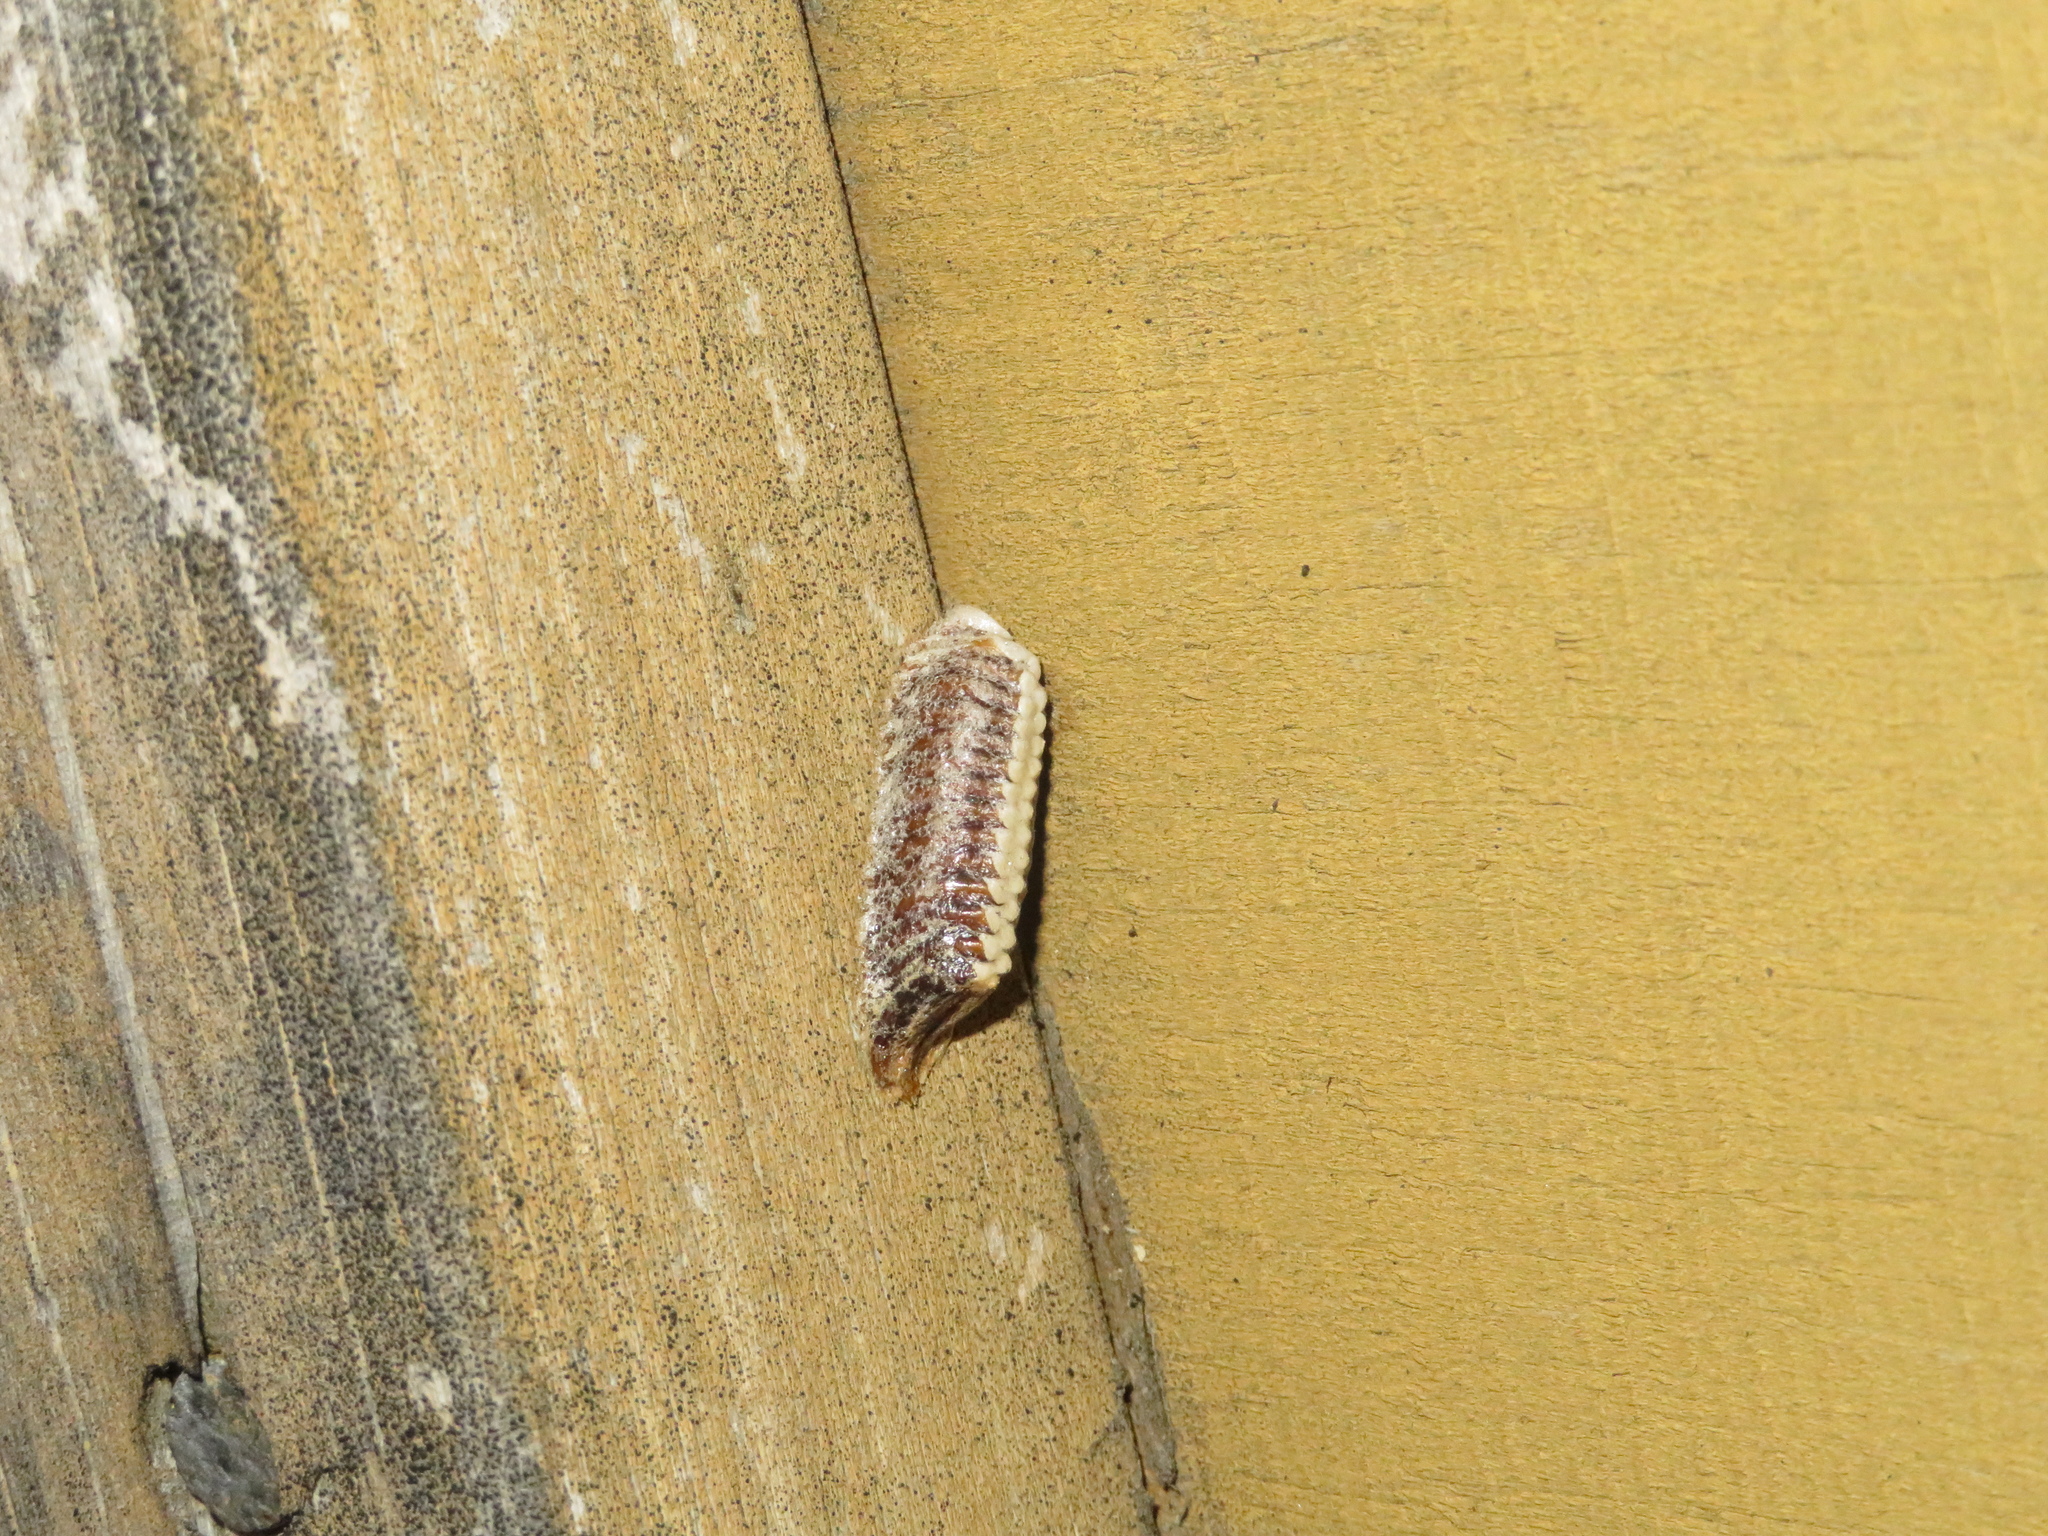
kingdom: Animalia
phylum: Arthropoda
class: Insecta
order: Mantodea
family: Mantidae
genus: Orthodera
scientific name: Orthodera novaezealandiae
